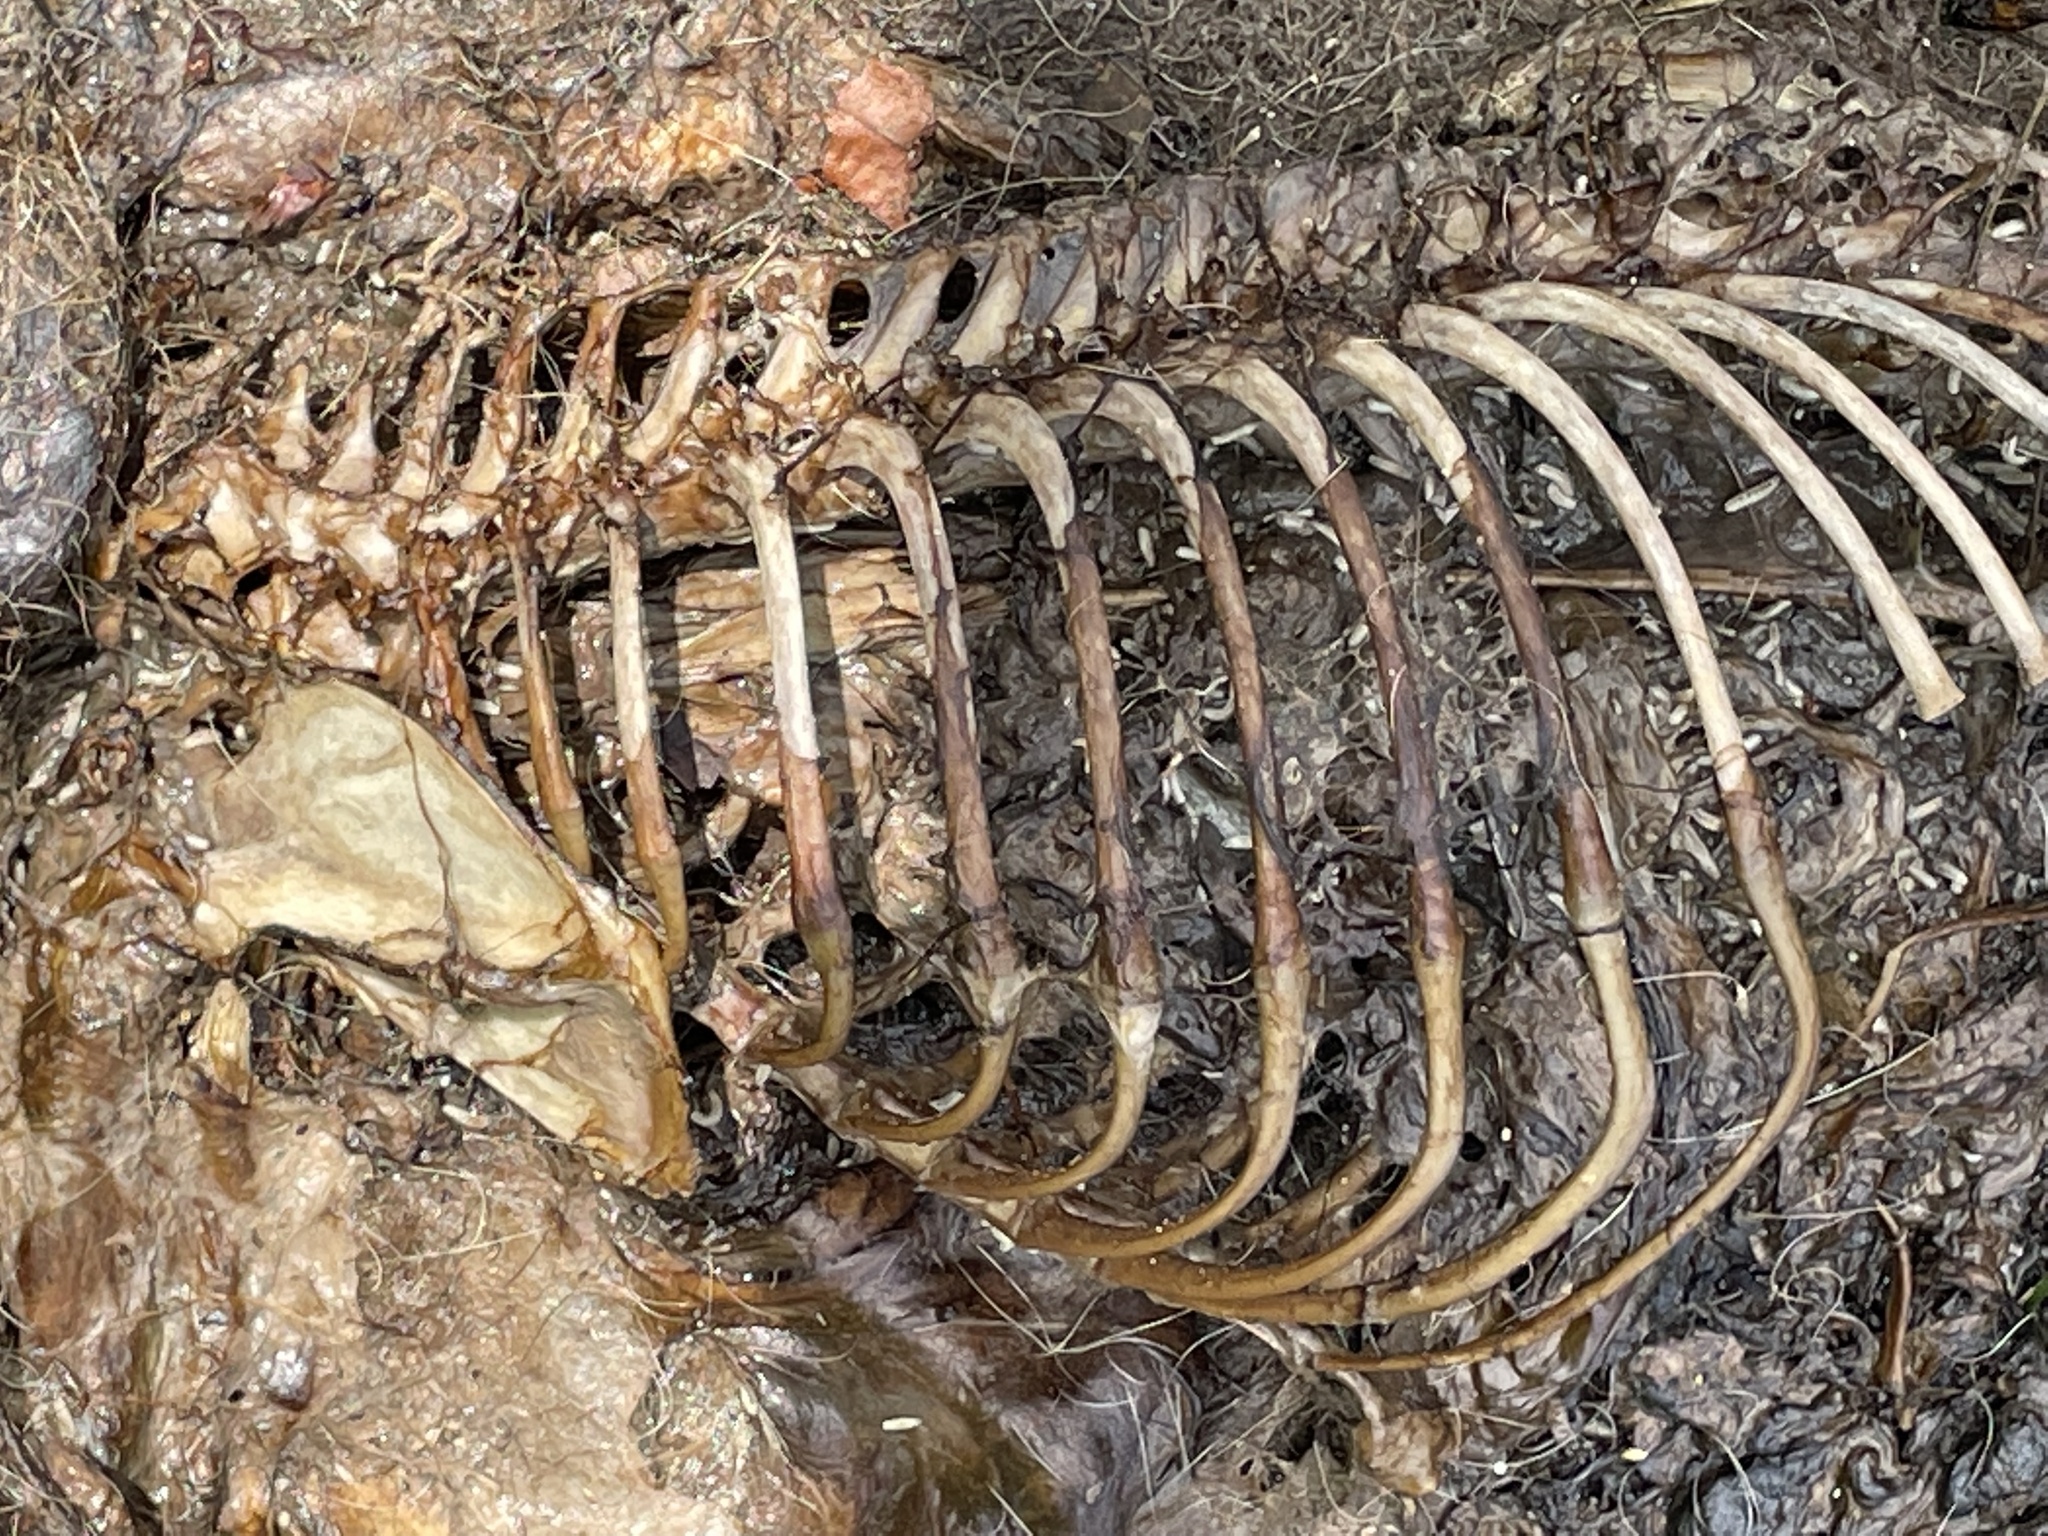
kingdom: Animalia
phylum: Chordata
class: Mammalia
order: Carnivora
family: Procyonidae
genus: Procyon
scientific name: Procyon lotor
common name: Raccoon
